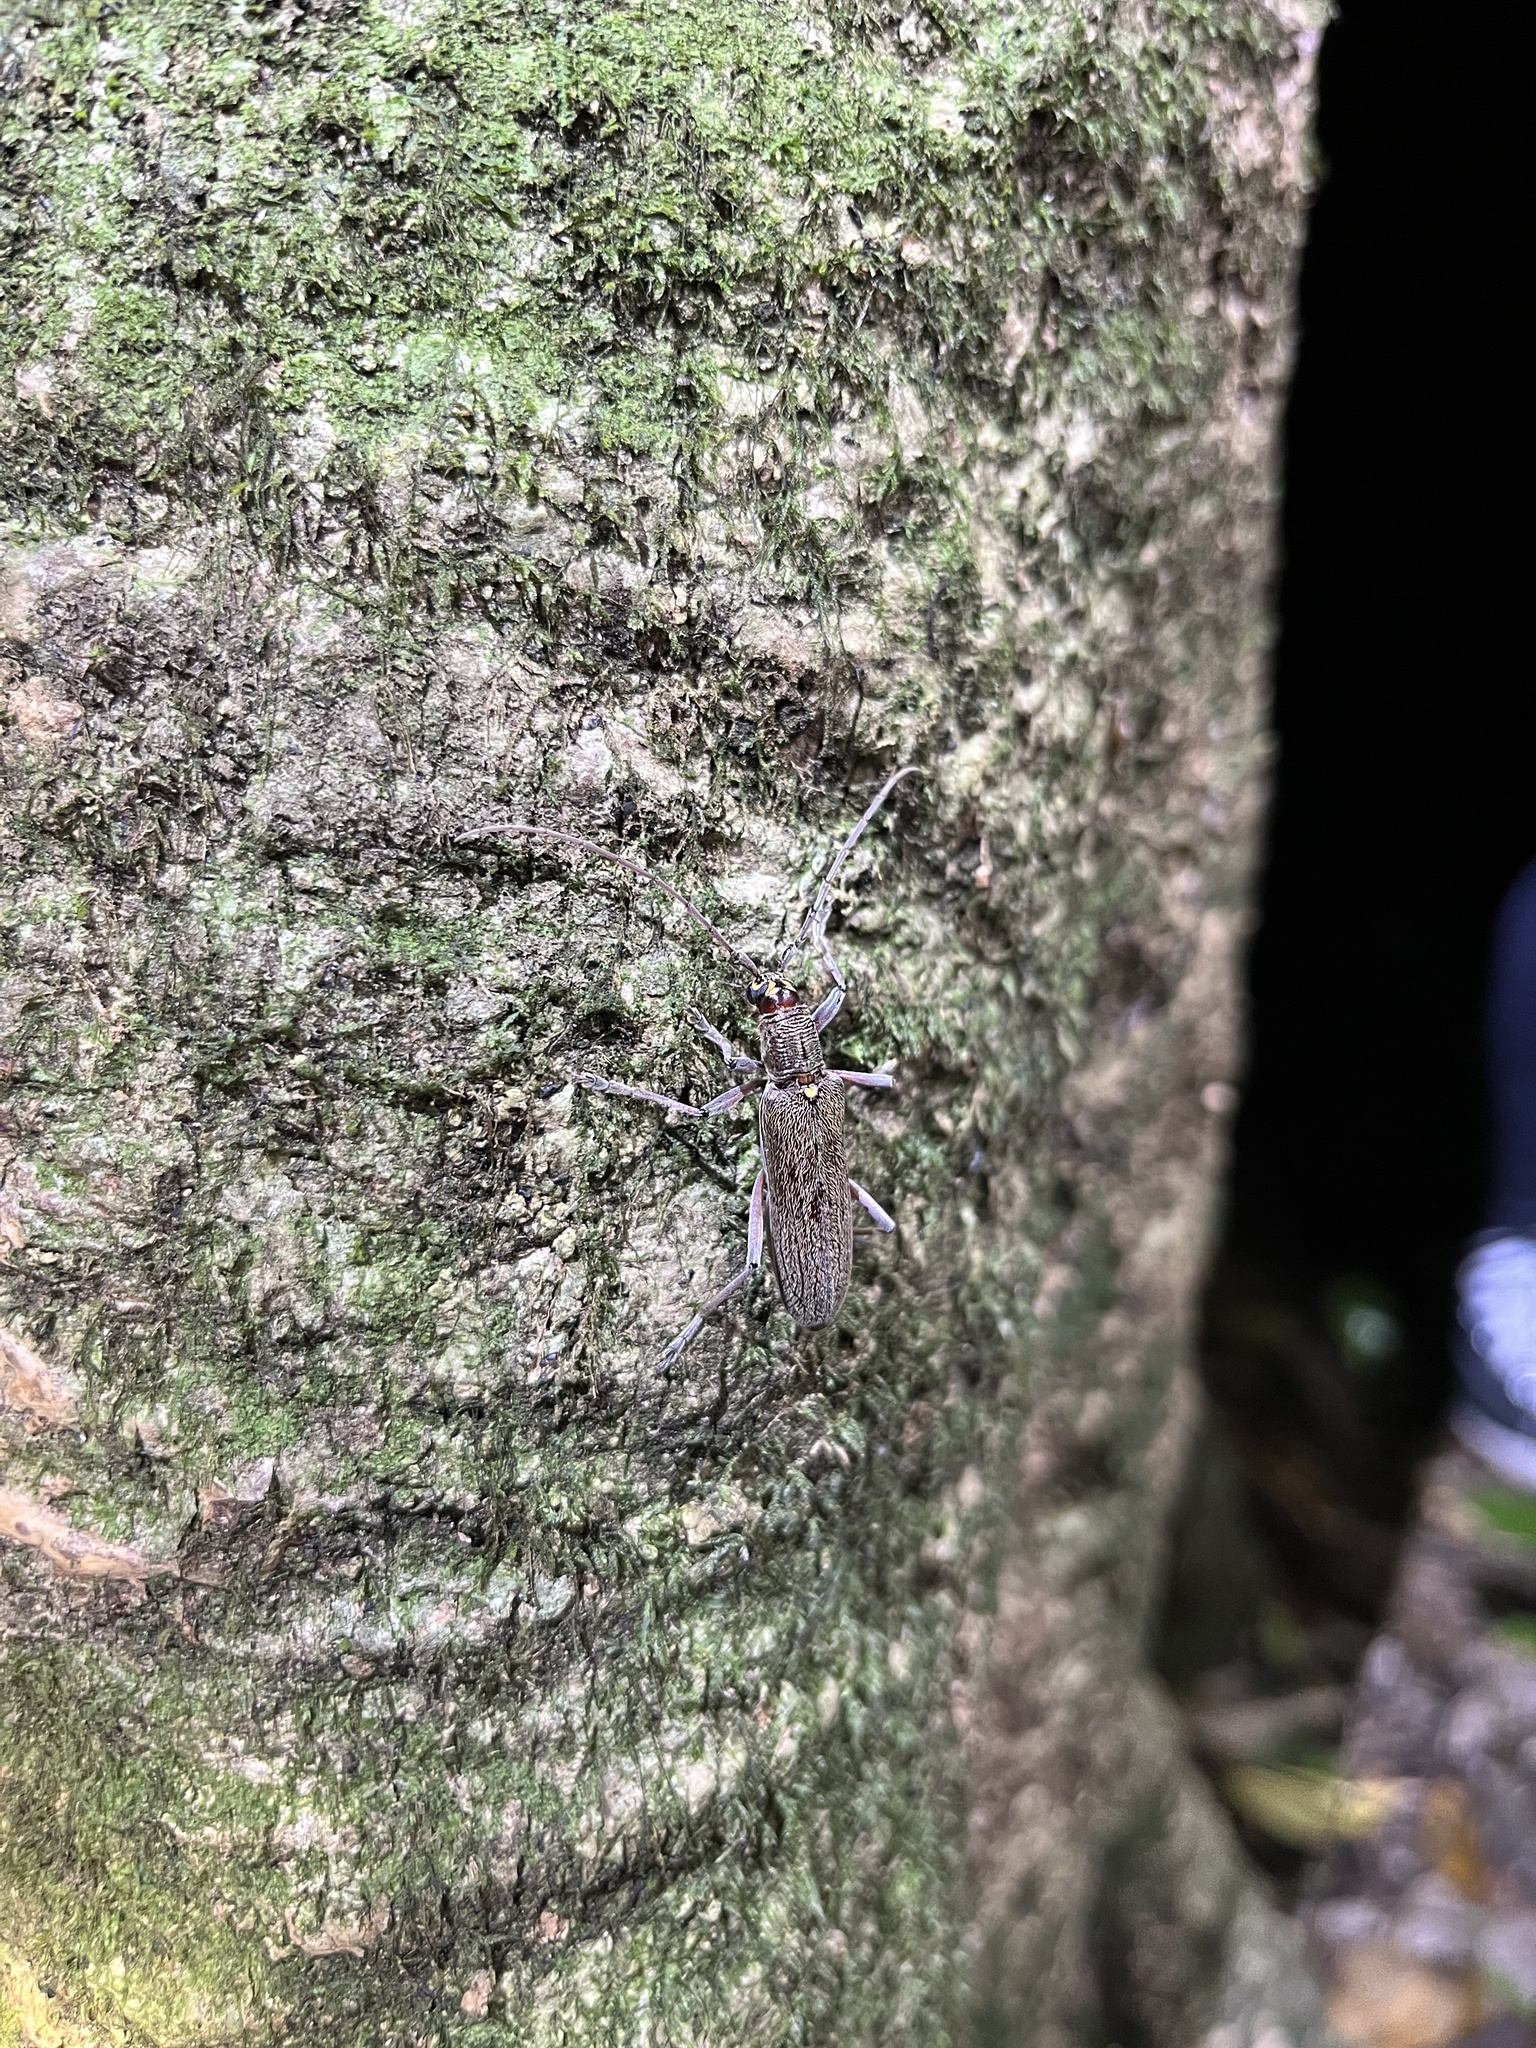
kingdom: Animalia
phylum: Arthropoda
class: Insecta
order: Coleoptera
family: Cerambycidae
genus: Oemona
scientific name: Oemona hirta
